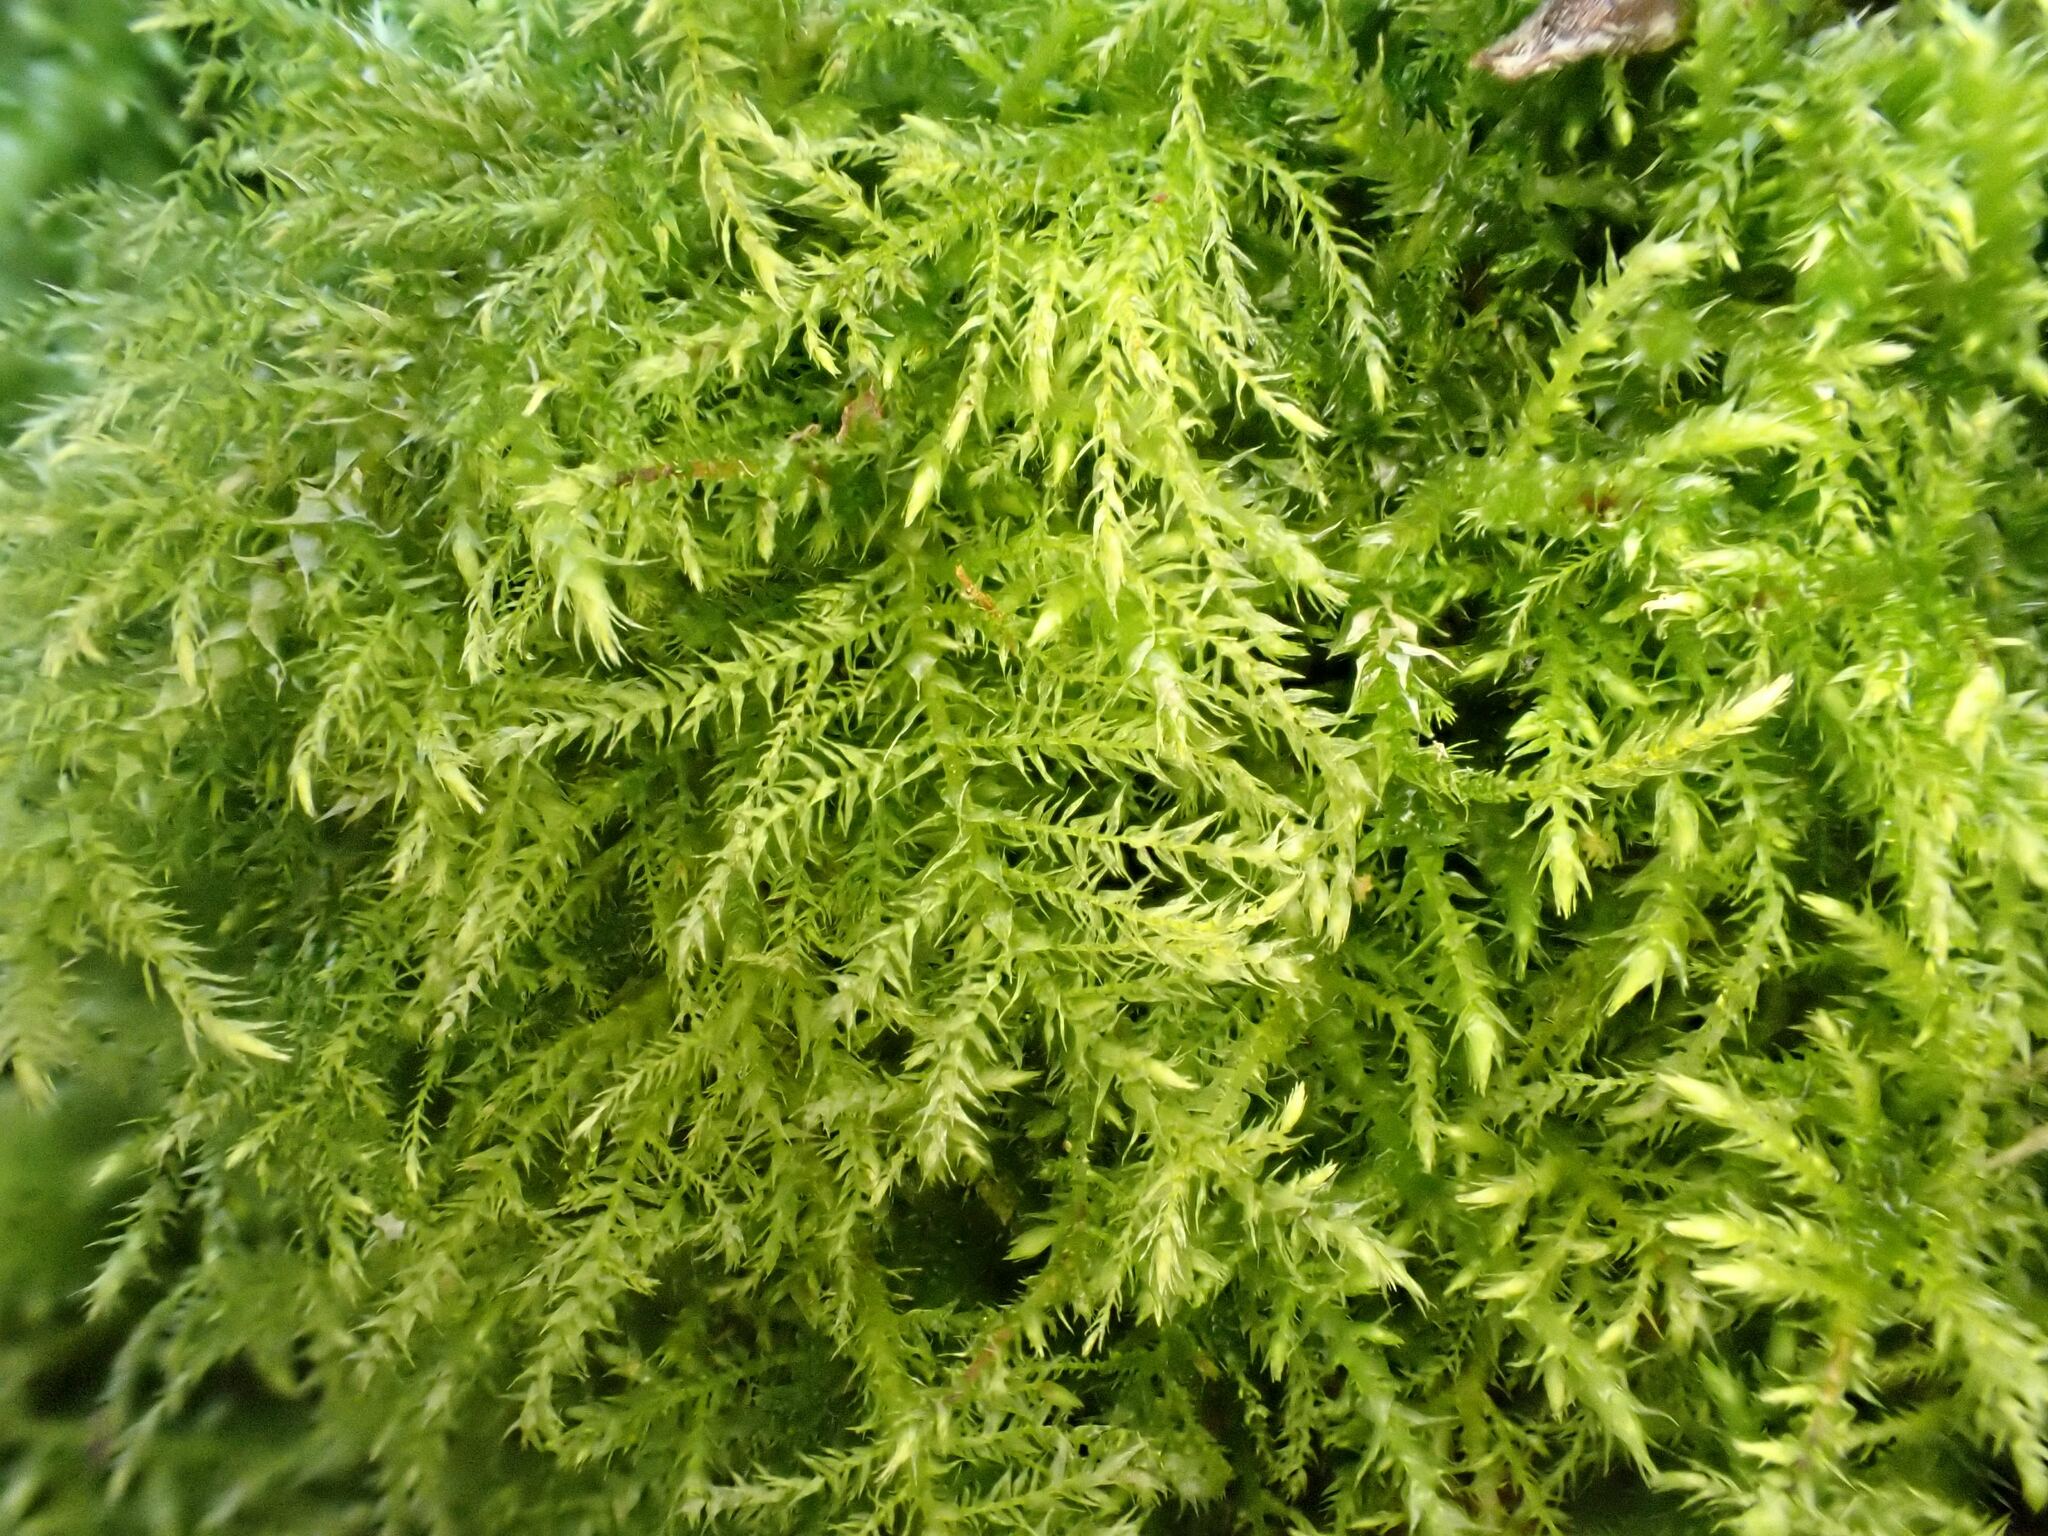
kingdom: Plantae
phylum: Bryophyta
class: Bryopsida
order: Hypnales
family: Brachytheciaceae
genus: Kindbergia
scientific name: Kindbergia praelonga
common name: Slender beaked moss
